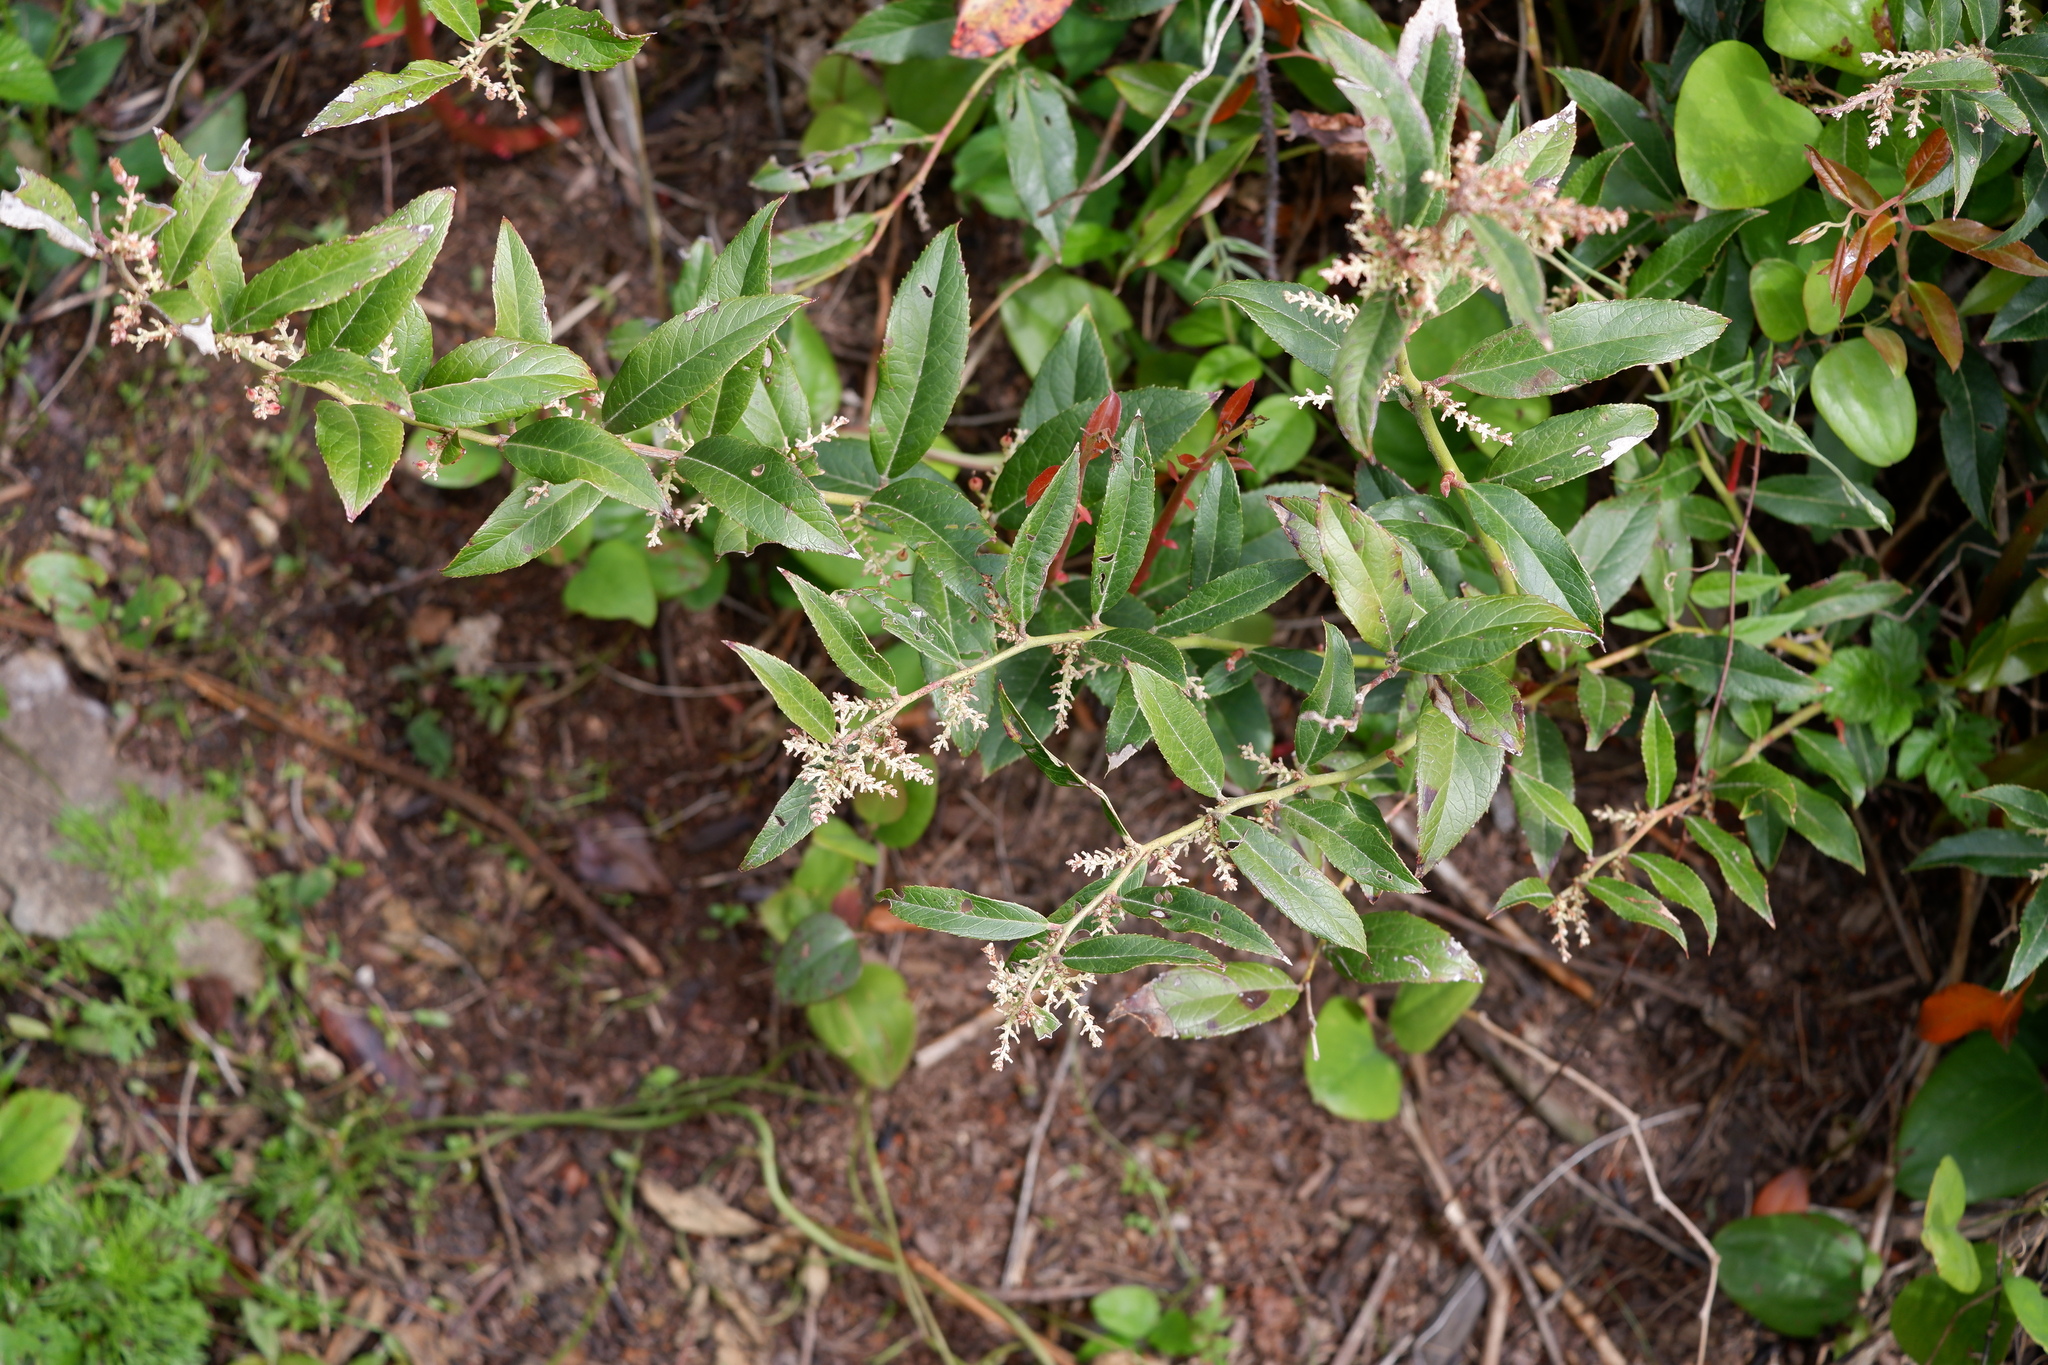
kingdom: Plantae
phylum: Tracheophyta
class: Magnoliopsida
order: Ericales
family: Ericaceae
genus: Leucothoe
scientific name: Leucothoe axillaris
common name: Leucothoe
